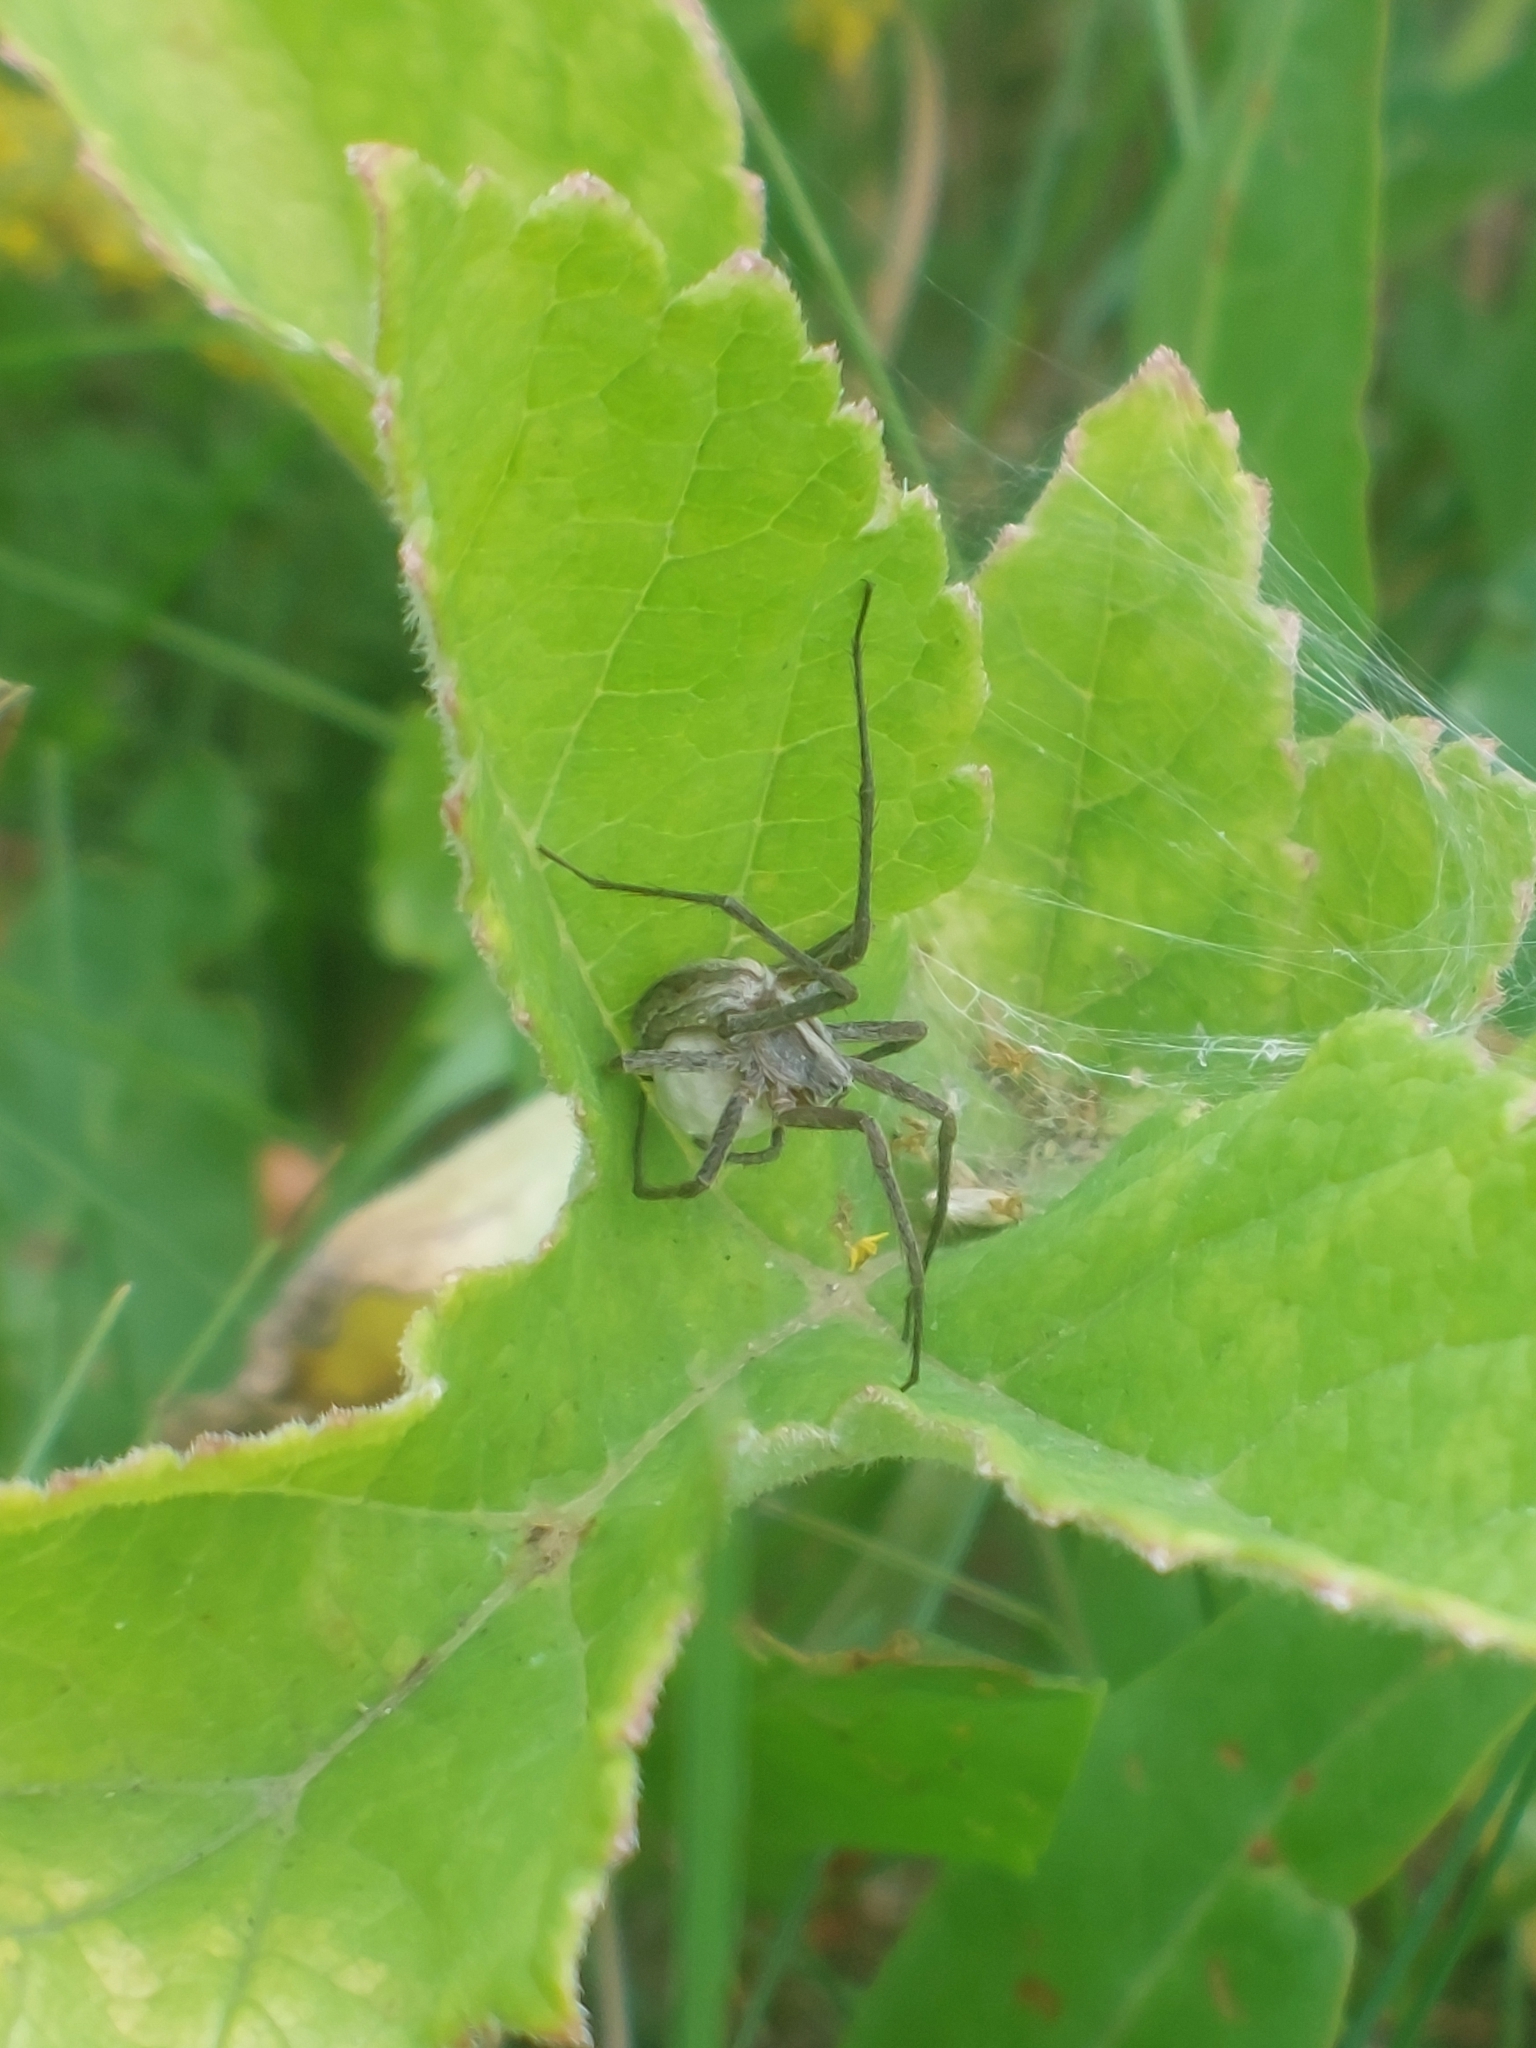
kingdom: Animalia
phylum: Arthropoda
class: Arachnida
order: Araneae
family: Pisauridae
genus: Pisaura
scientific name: Pisaura mirabilis
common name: Tent spider
